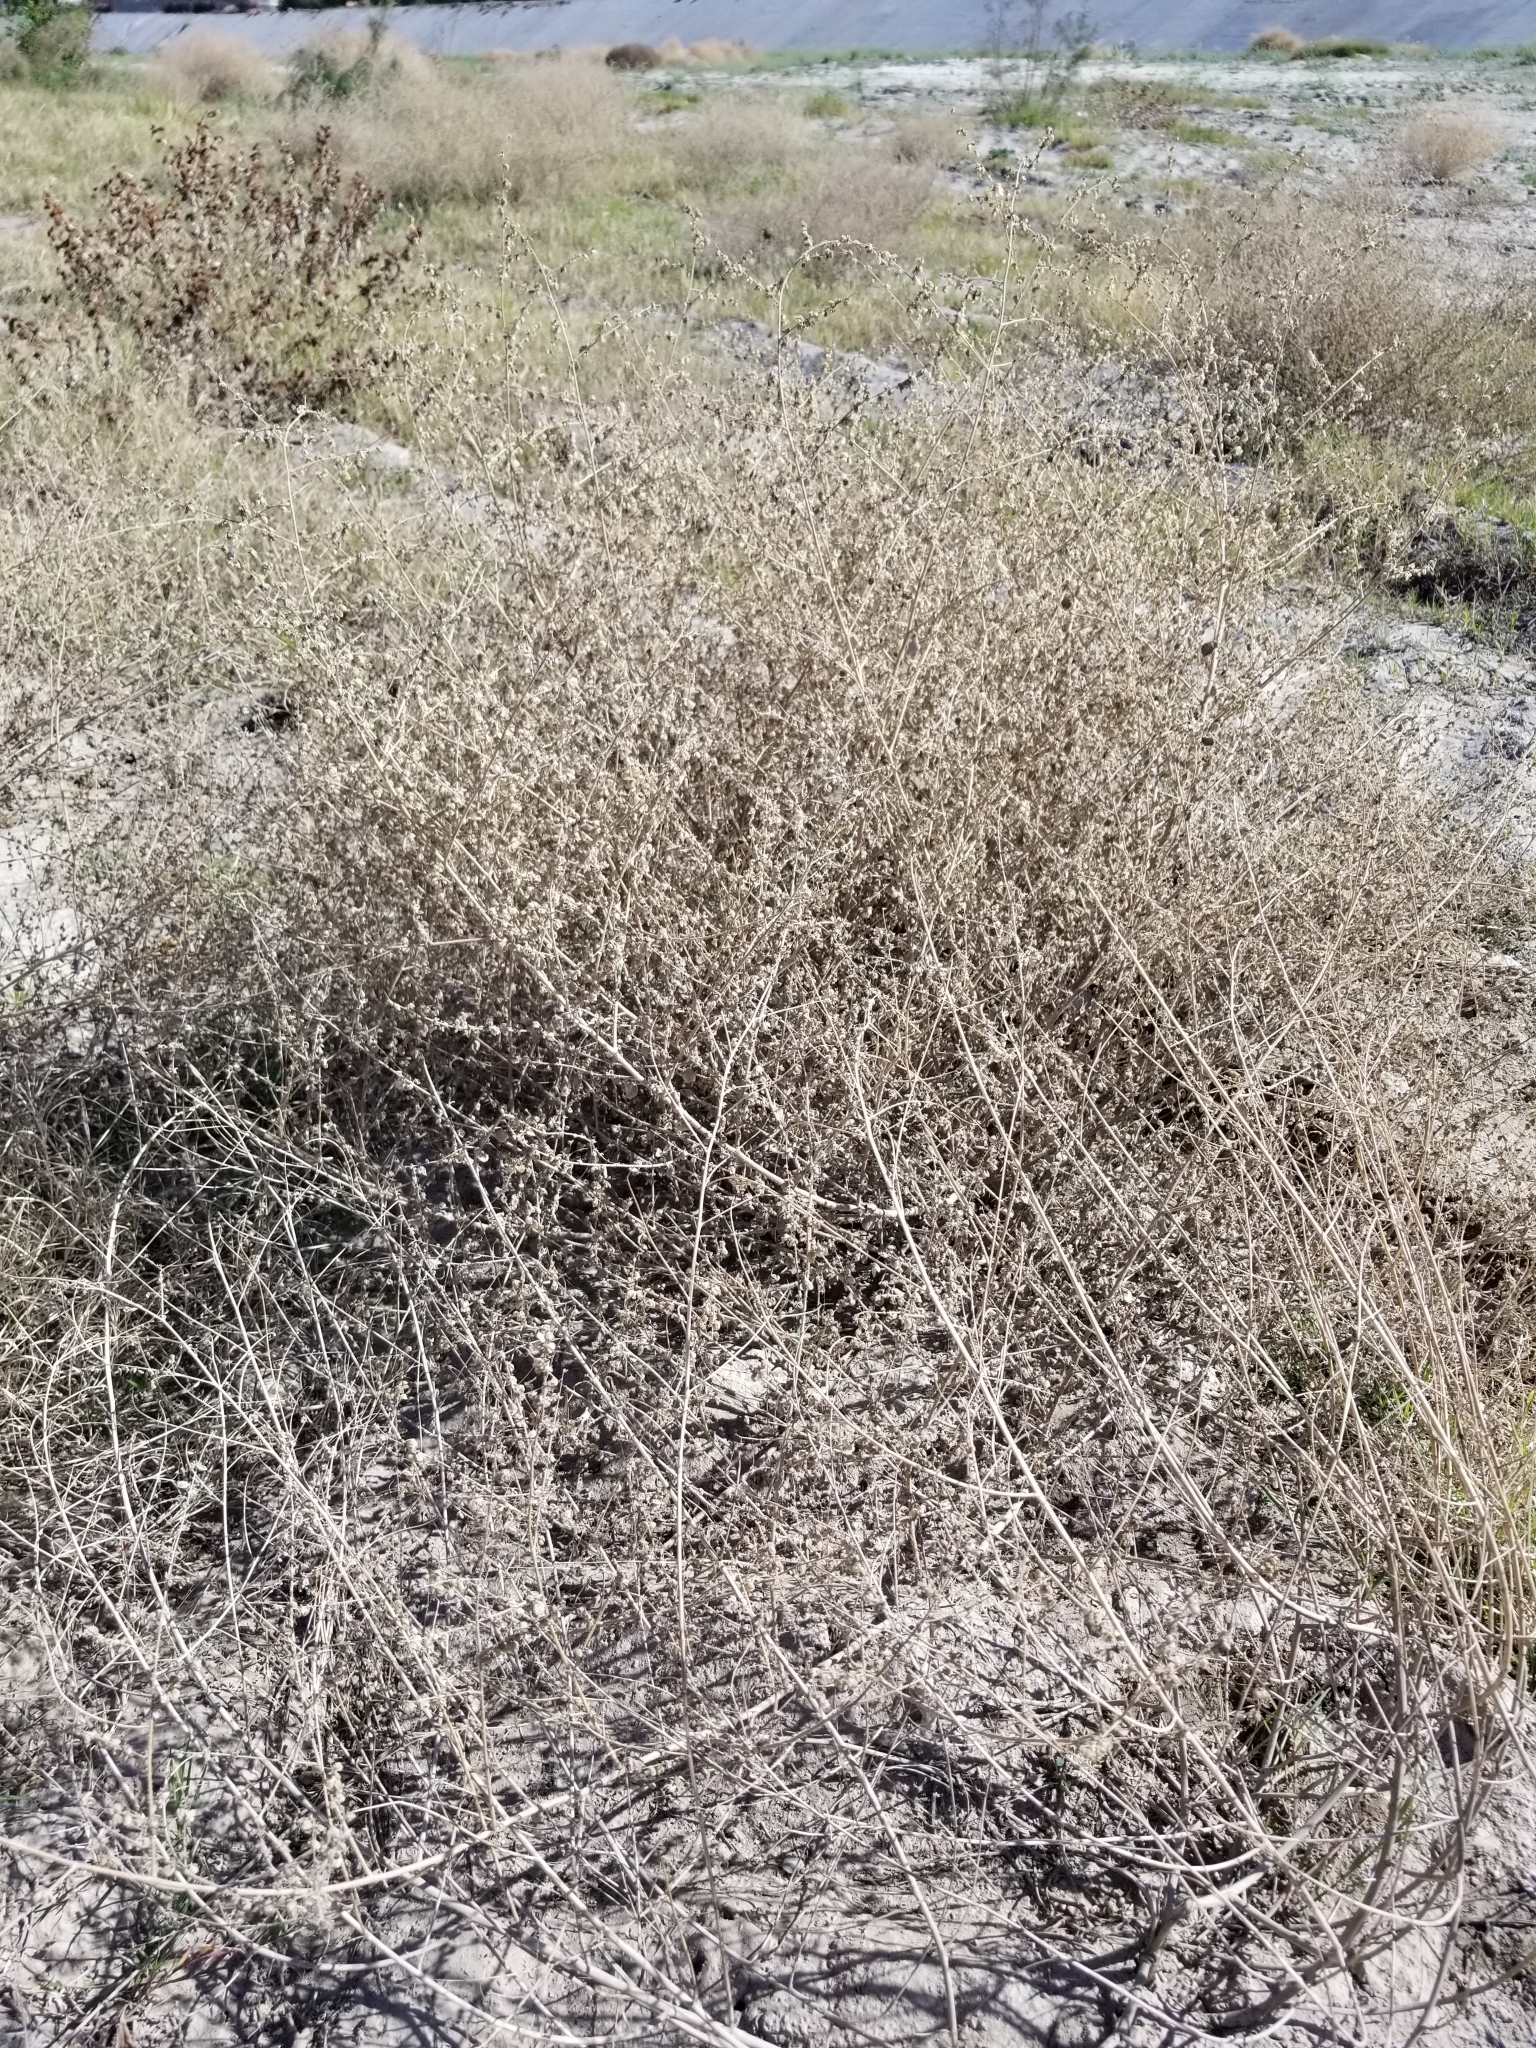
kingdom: Plantae
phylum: Tracheophyta
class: Magnoliopsida
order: Asterales
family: Asteraceae
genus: Dicoria
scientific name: Dicoria canescens
